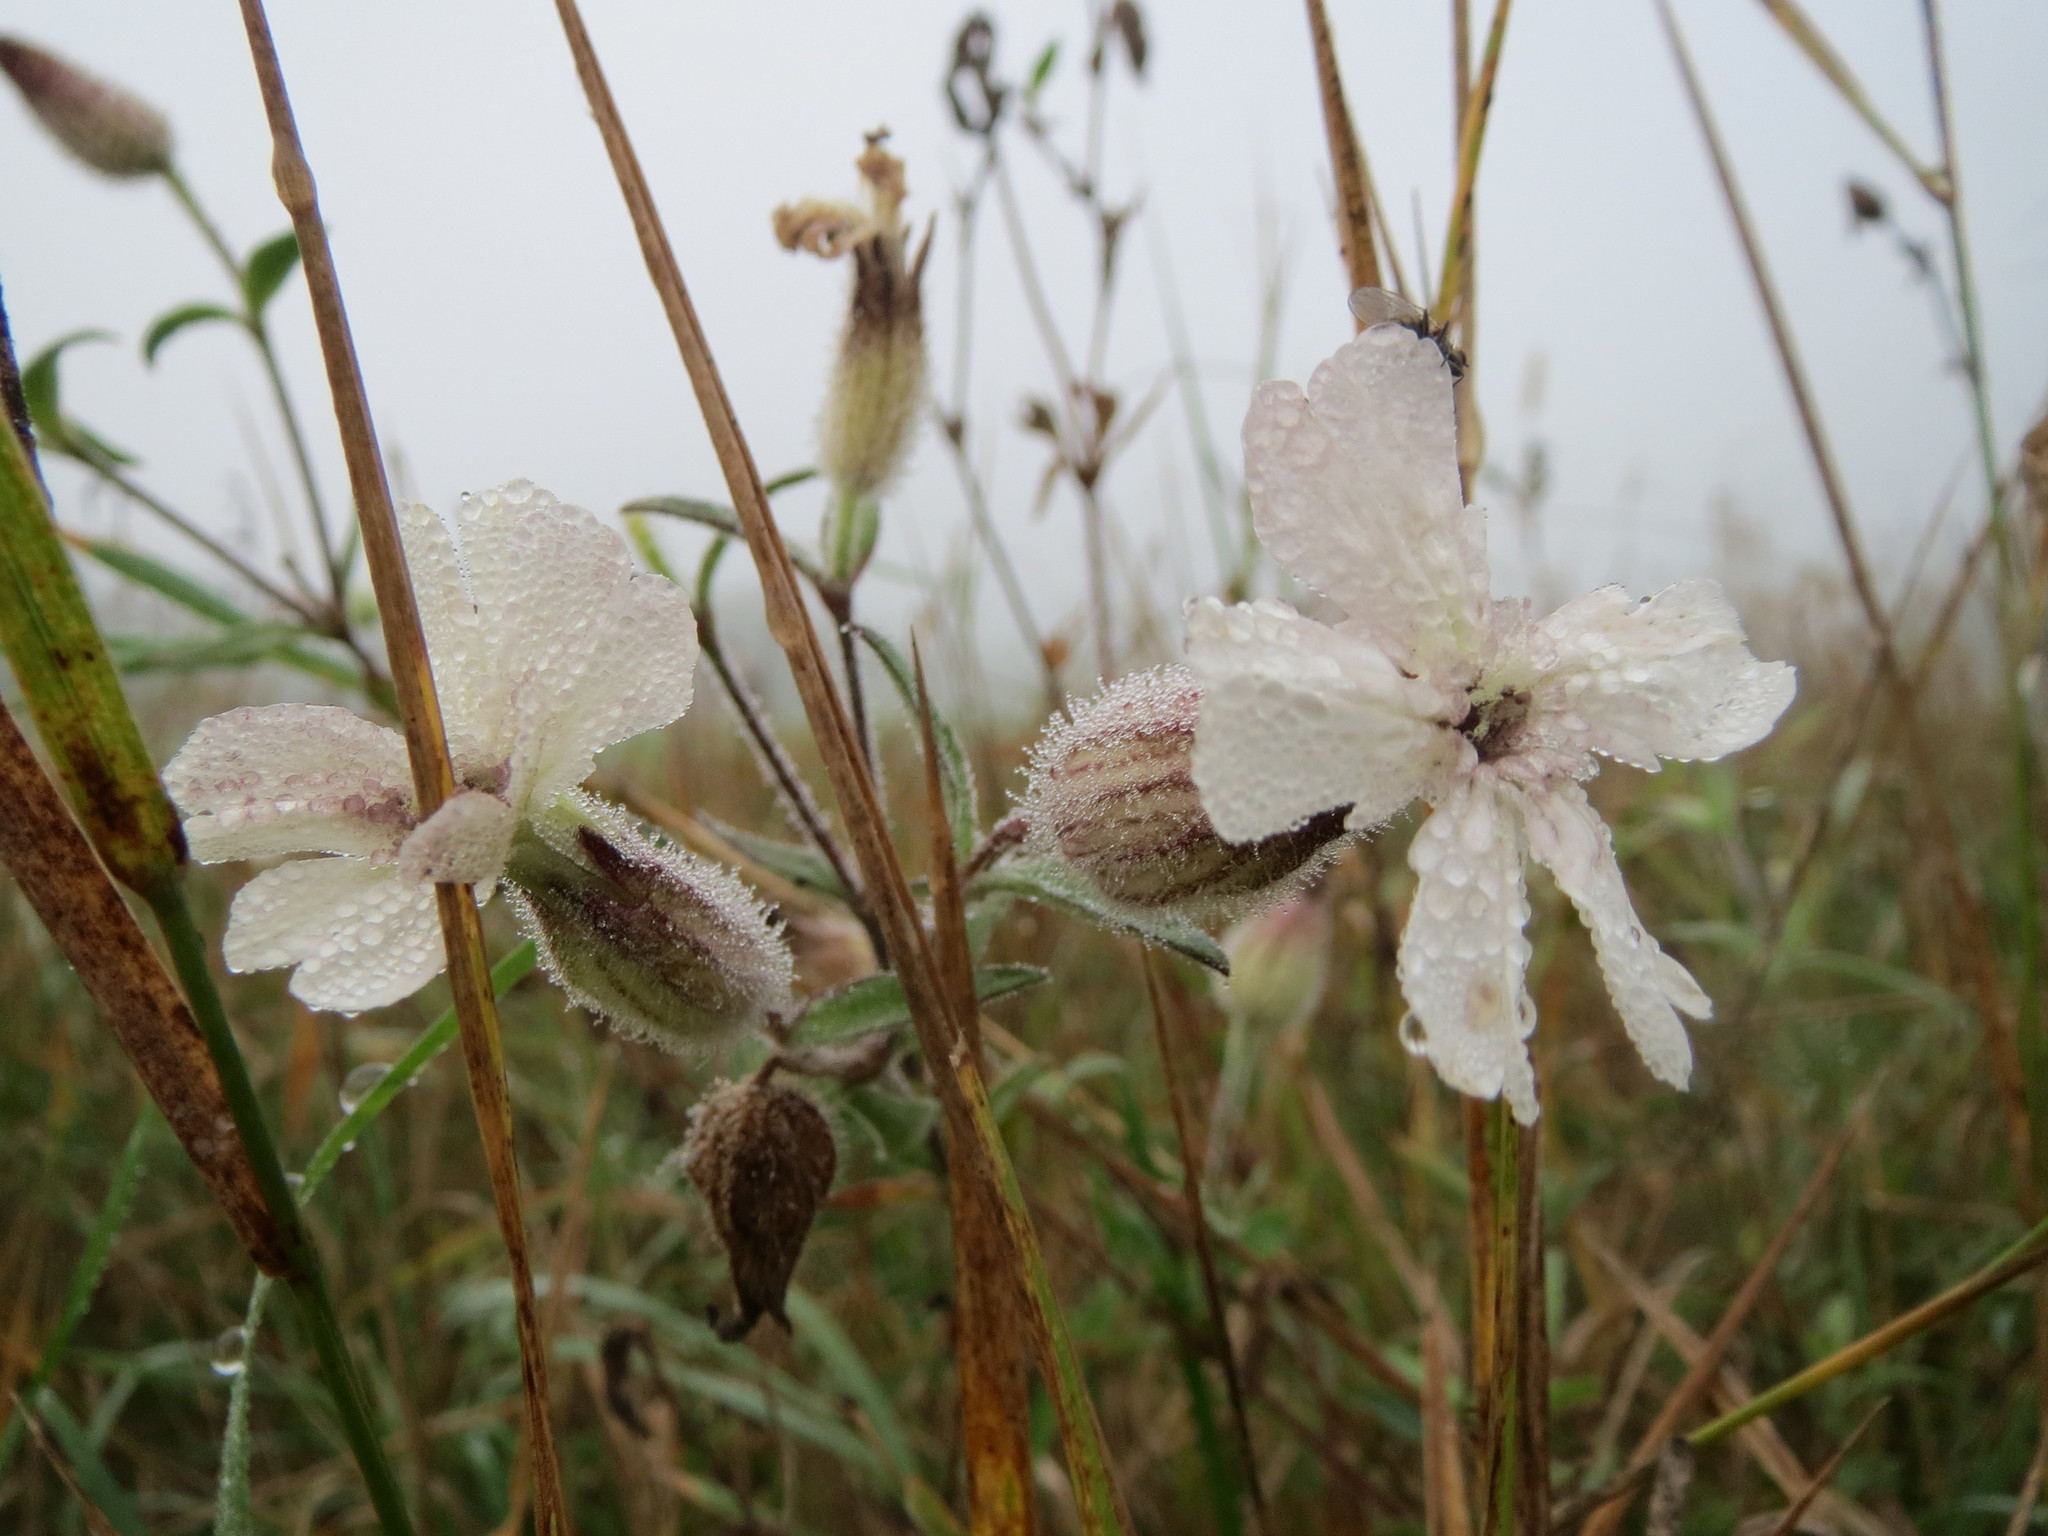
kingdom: Plantae
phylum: Tracheophyta
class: Magnoliopsida
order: Caryophyllales
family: Caryophyllaceae
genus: Silene
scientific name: Silene latifolia
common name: White campion
